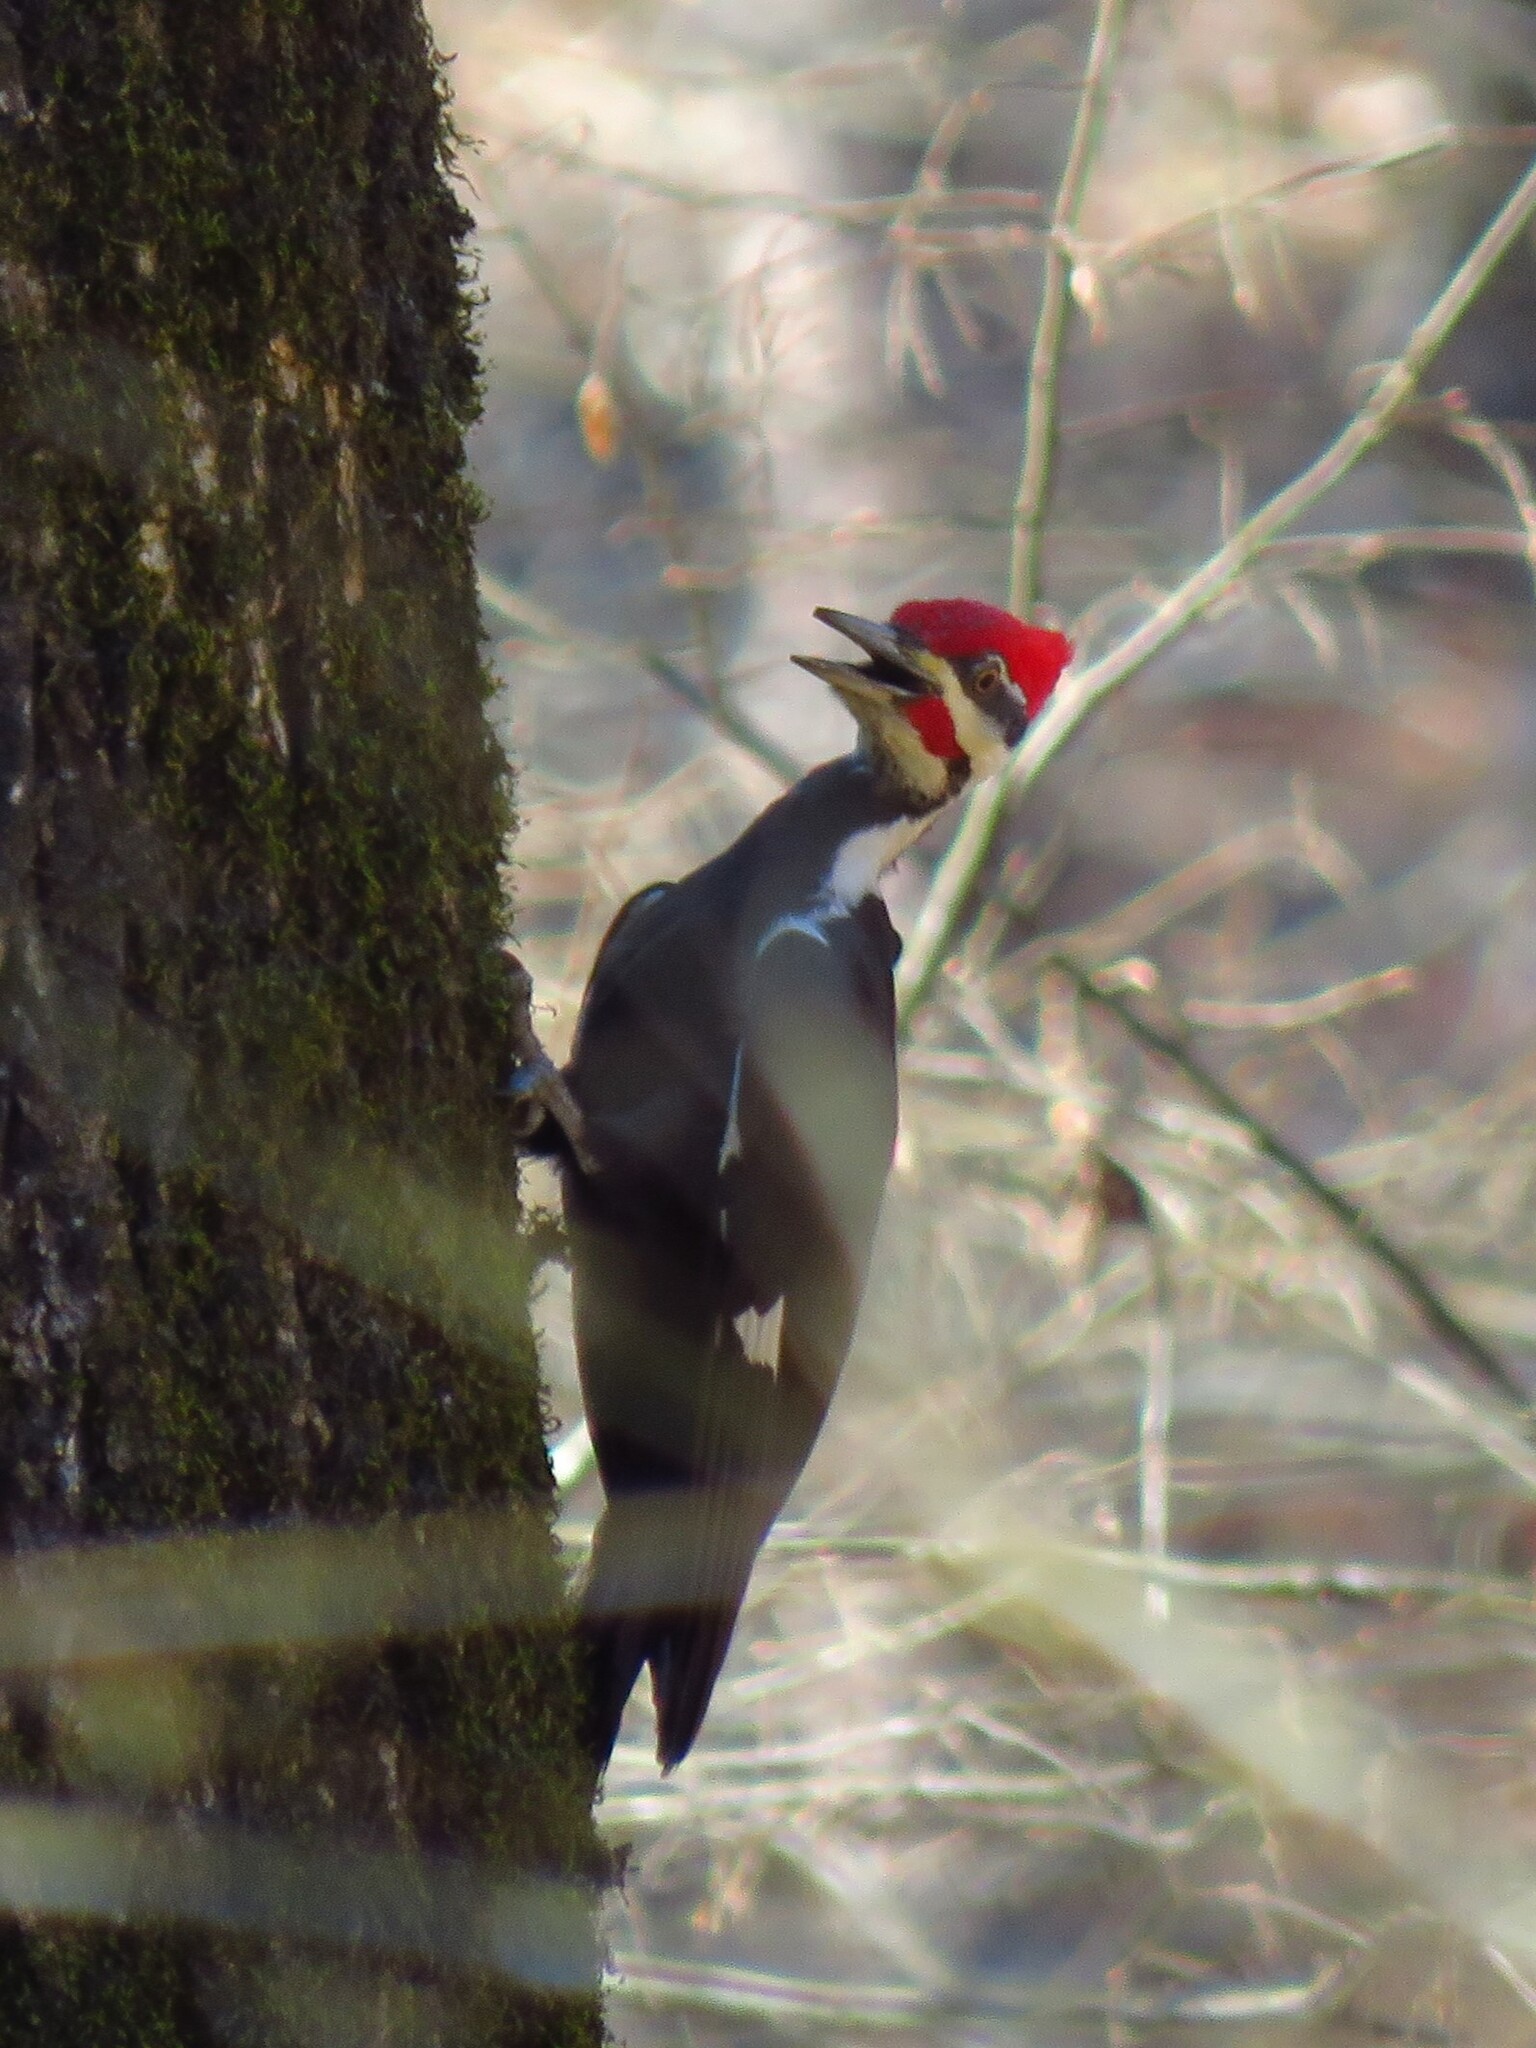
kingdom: Animalia
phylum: Chordata
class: Aves
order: Piciformes
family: Picidae
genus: Dryocopus
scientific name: Dryocopus pileatus
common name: Pileated woodpecker
